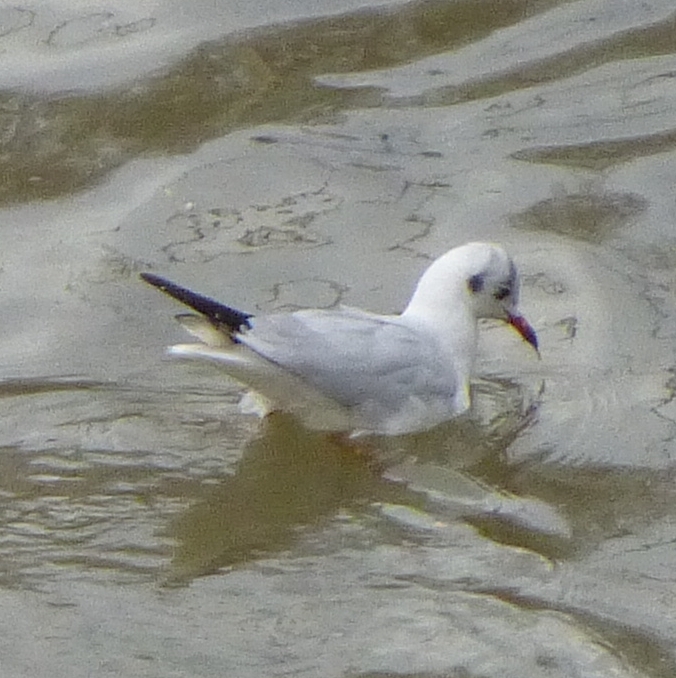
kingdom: Animalia
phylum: Chordata
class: Aves
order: Charadriiformes
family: Laridae
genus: Chroicocephalus
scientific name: Chroicocephalus ridibundus
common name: Black-headed gull
